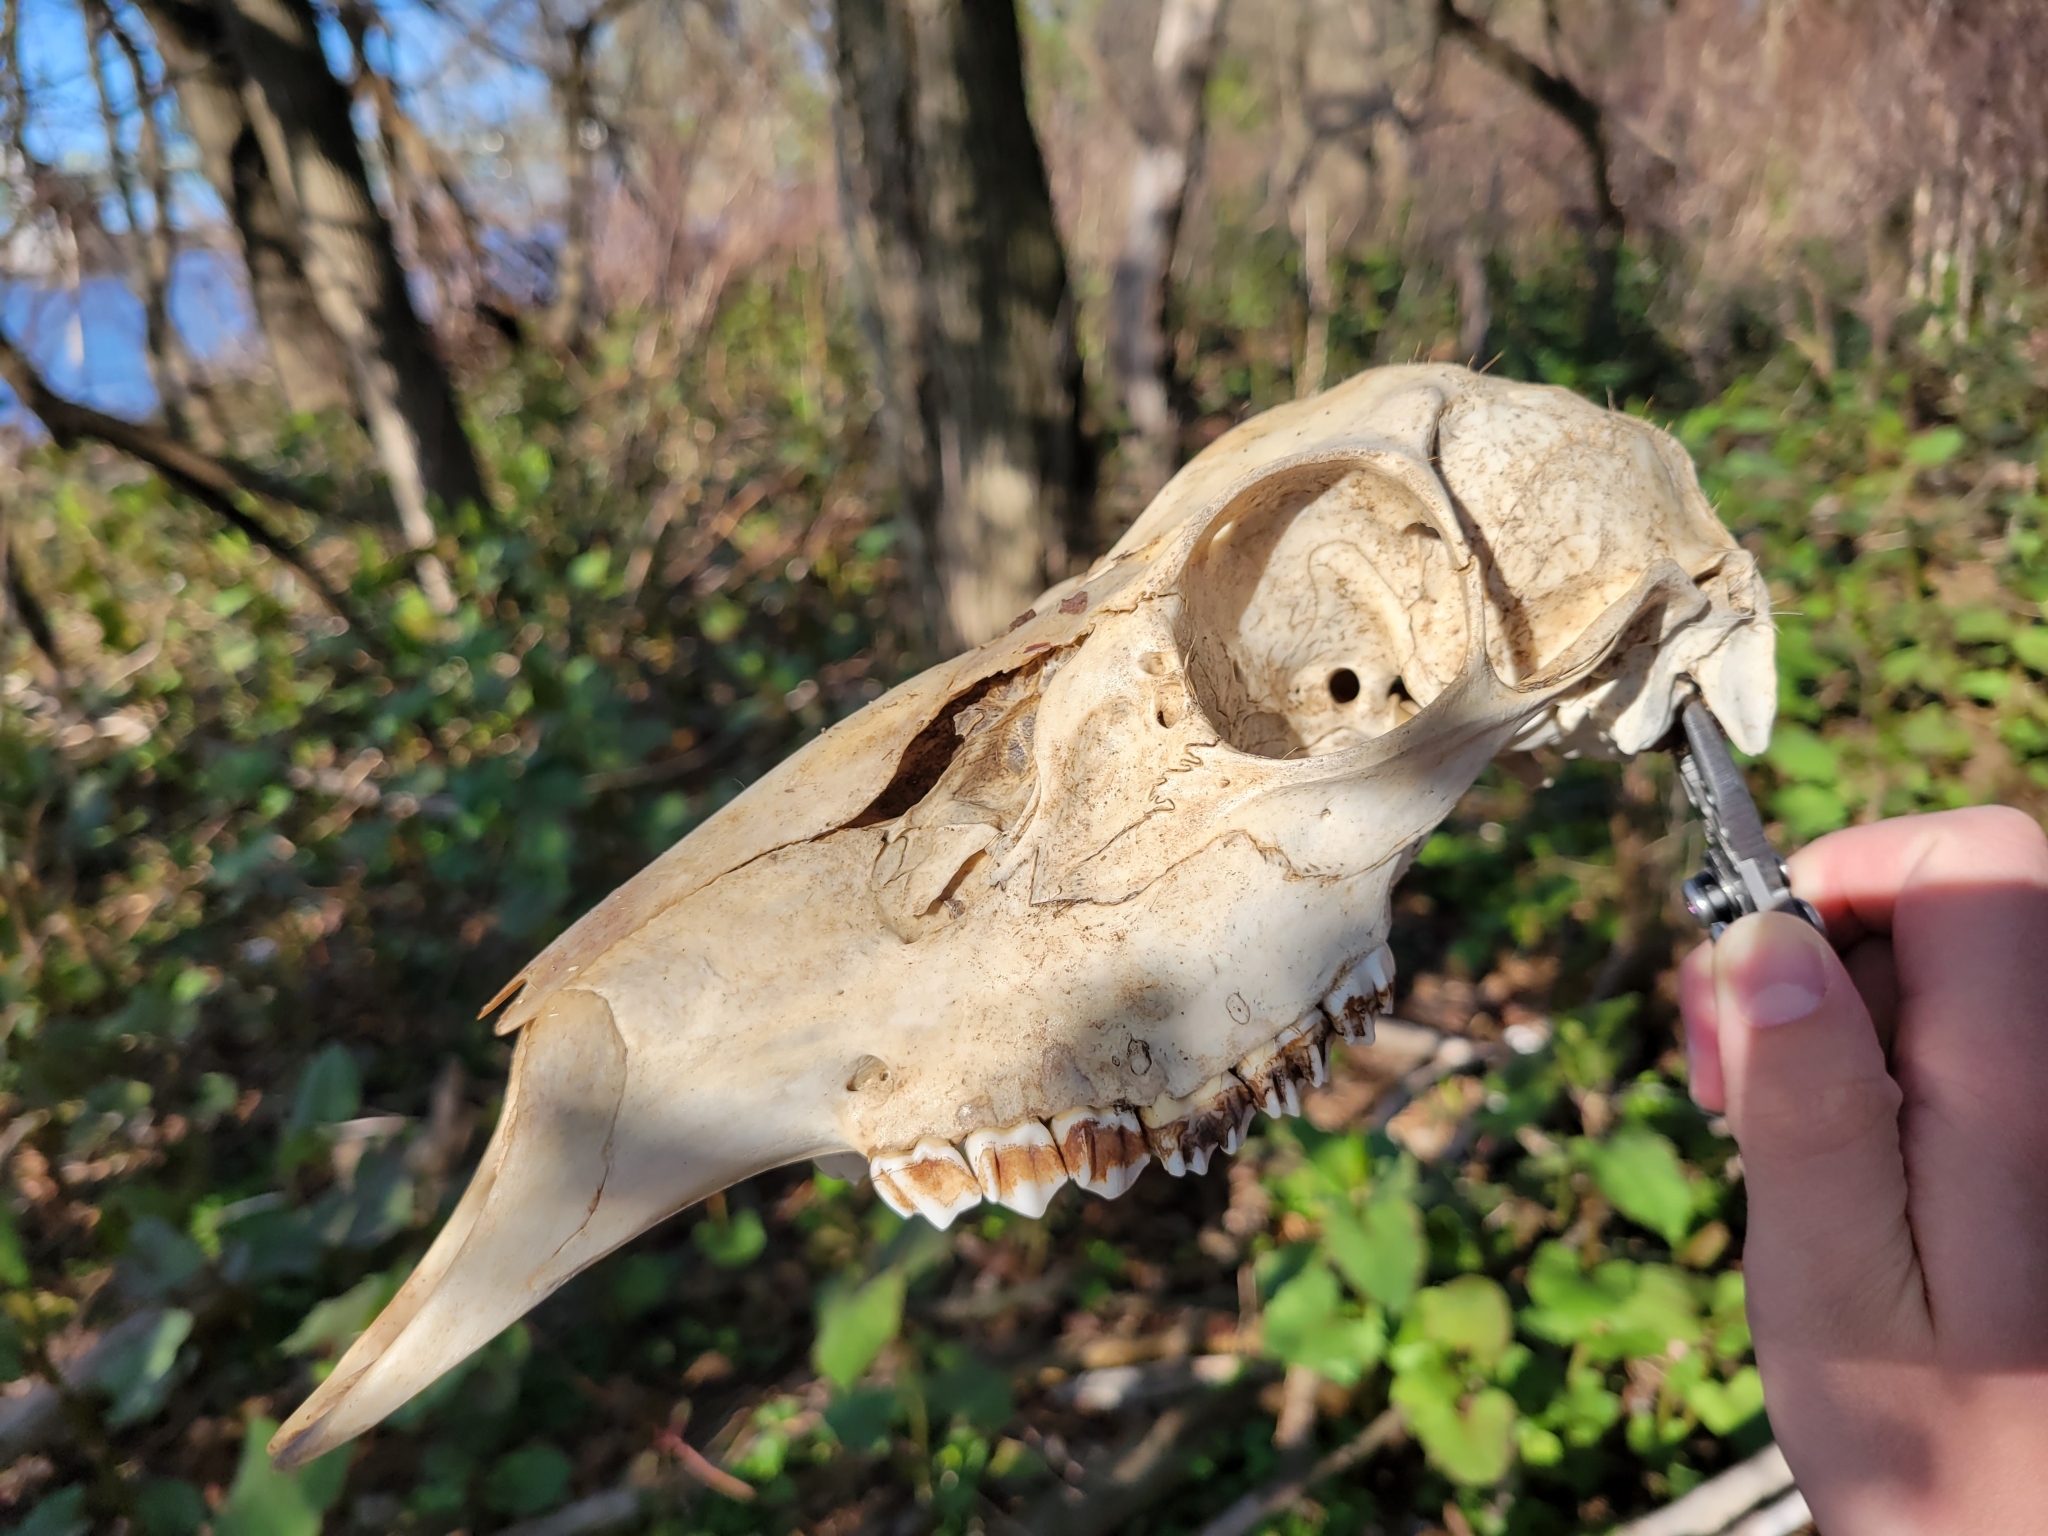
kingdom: Animalia
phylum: Chordata
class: Mammalia
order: Artiodactyla
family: Cervidae
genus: Odocoileus
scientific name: Odocoileus virginianus
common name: White-tailed deer
